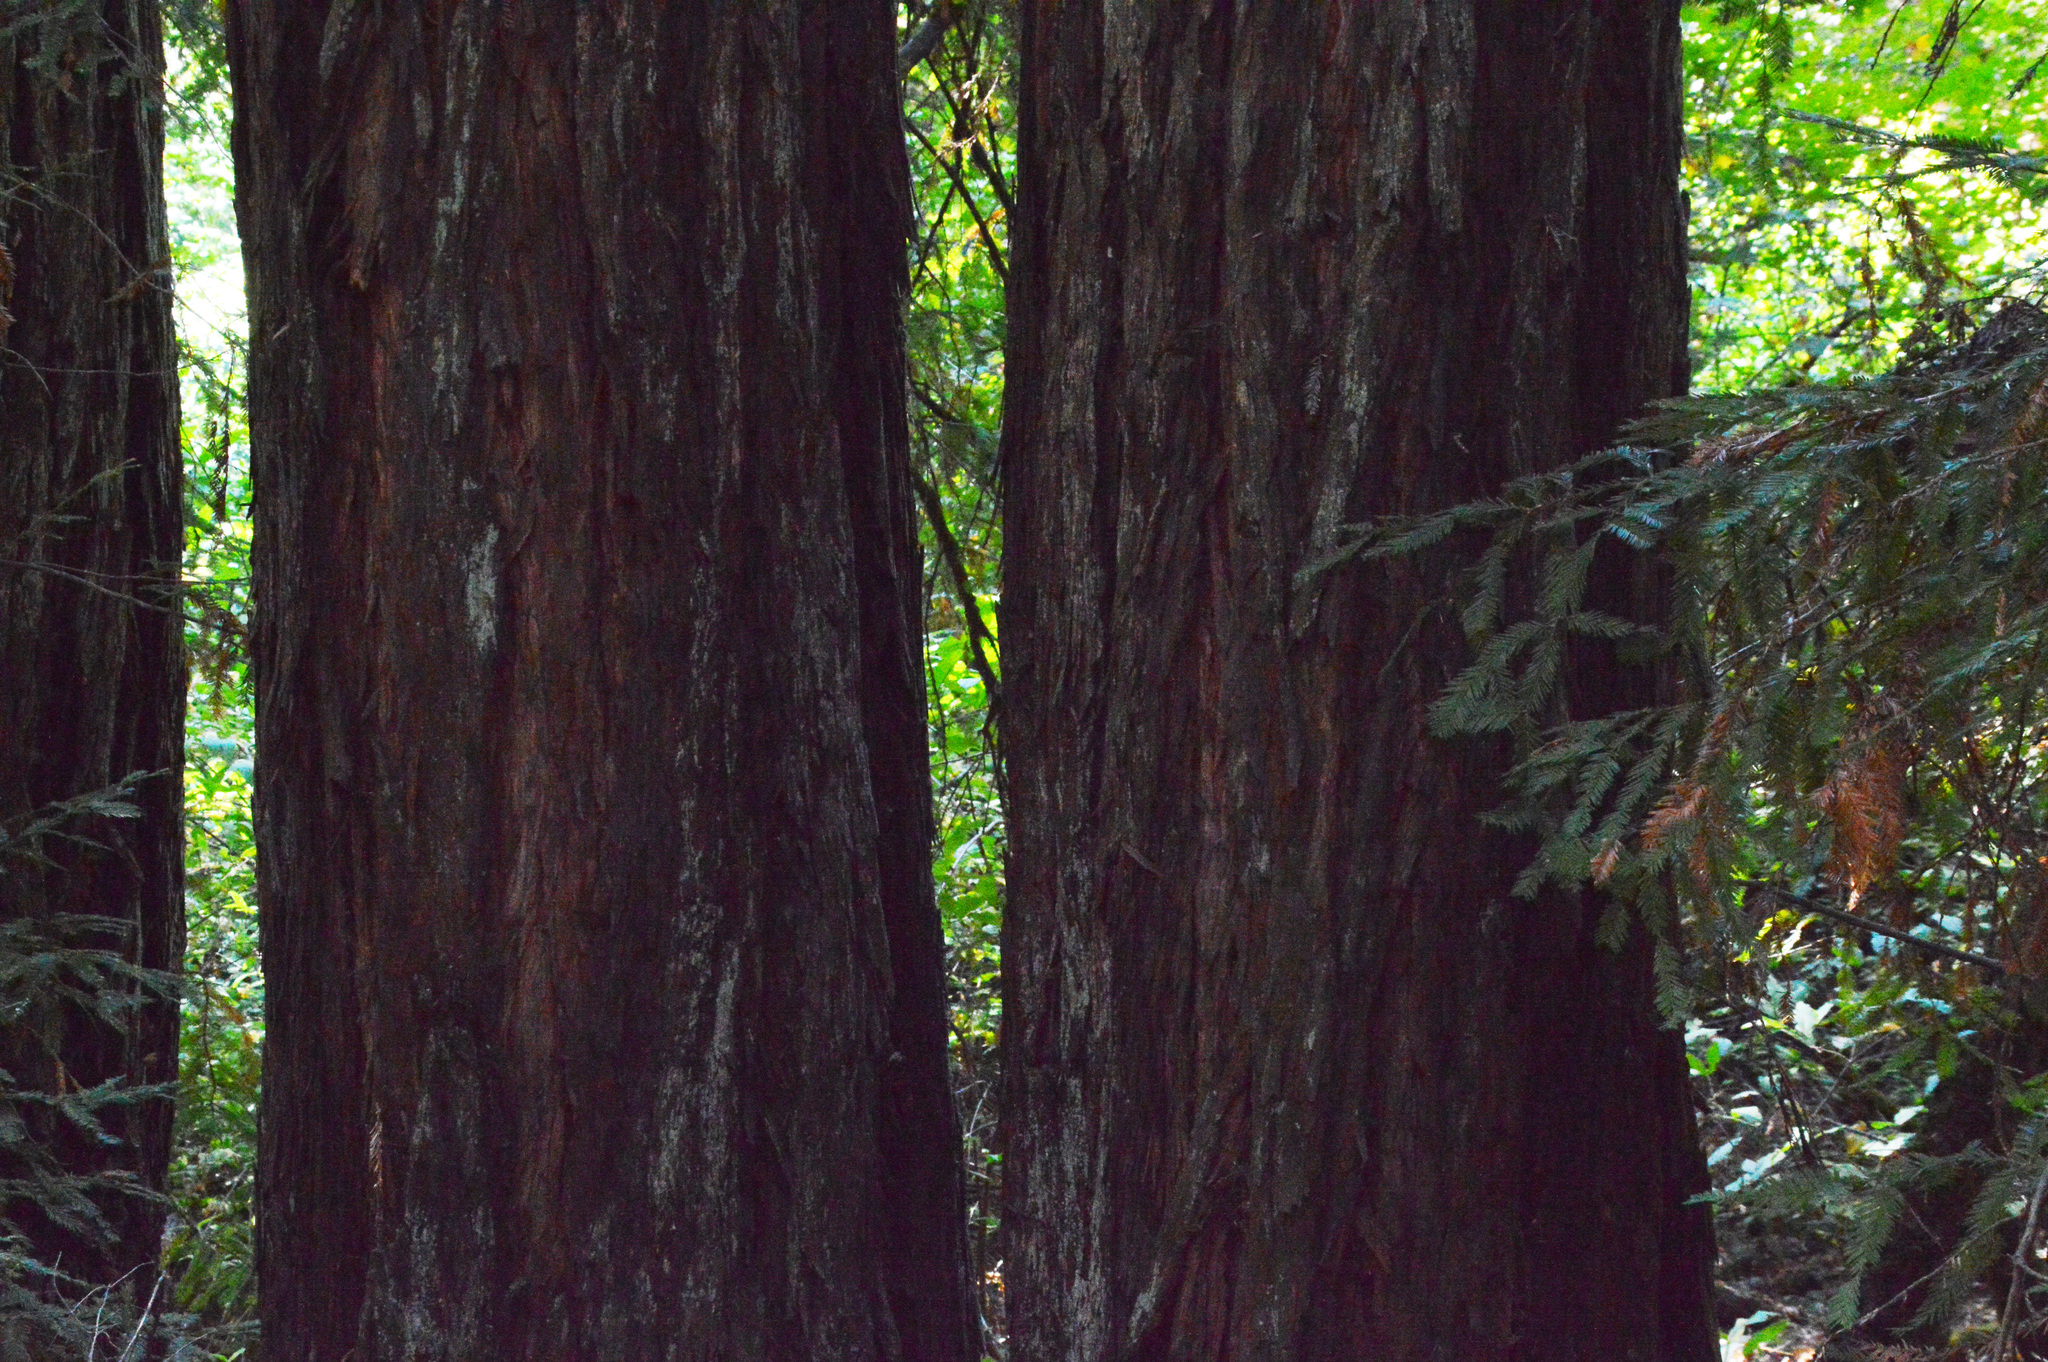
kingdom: Plantae
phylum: Tracheophyta
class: Pinopsida
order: Pinales
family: Cupressaceae
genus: Sequoia
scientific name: Sequoia sempervirens
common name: Coast redwood
